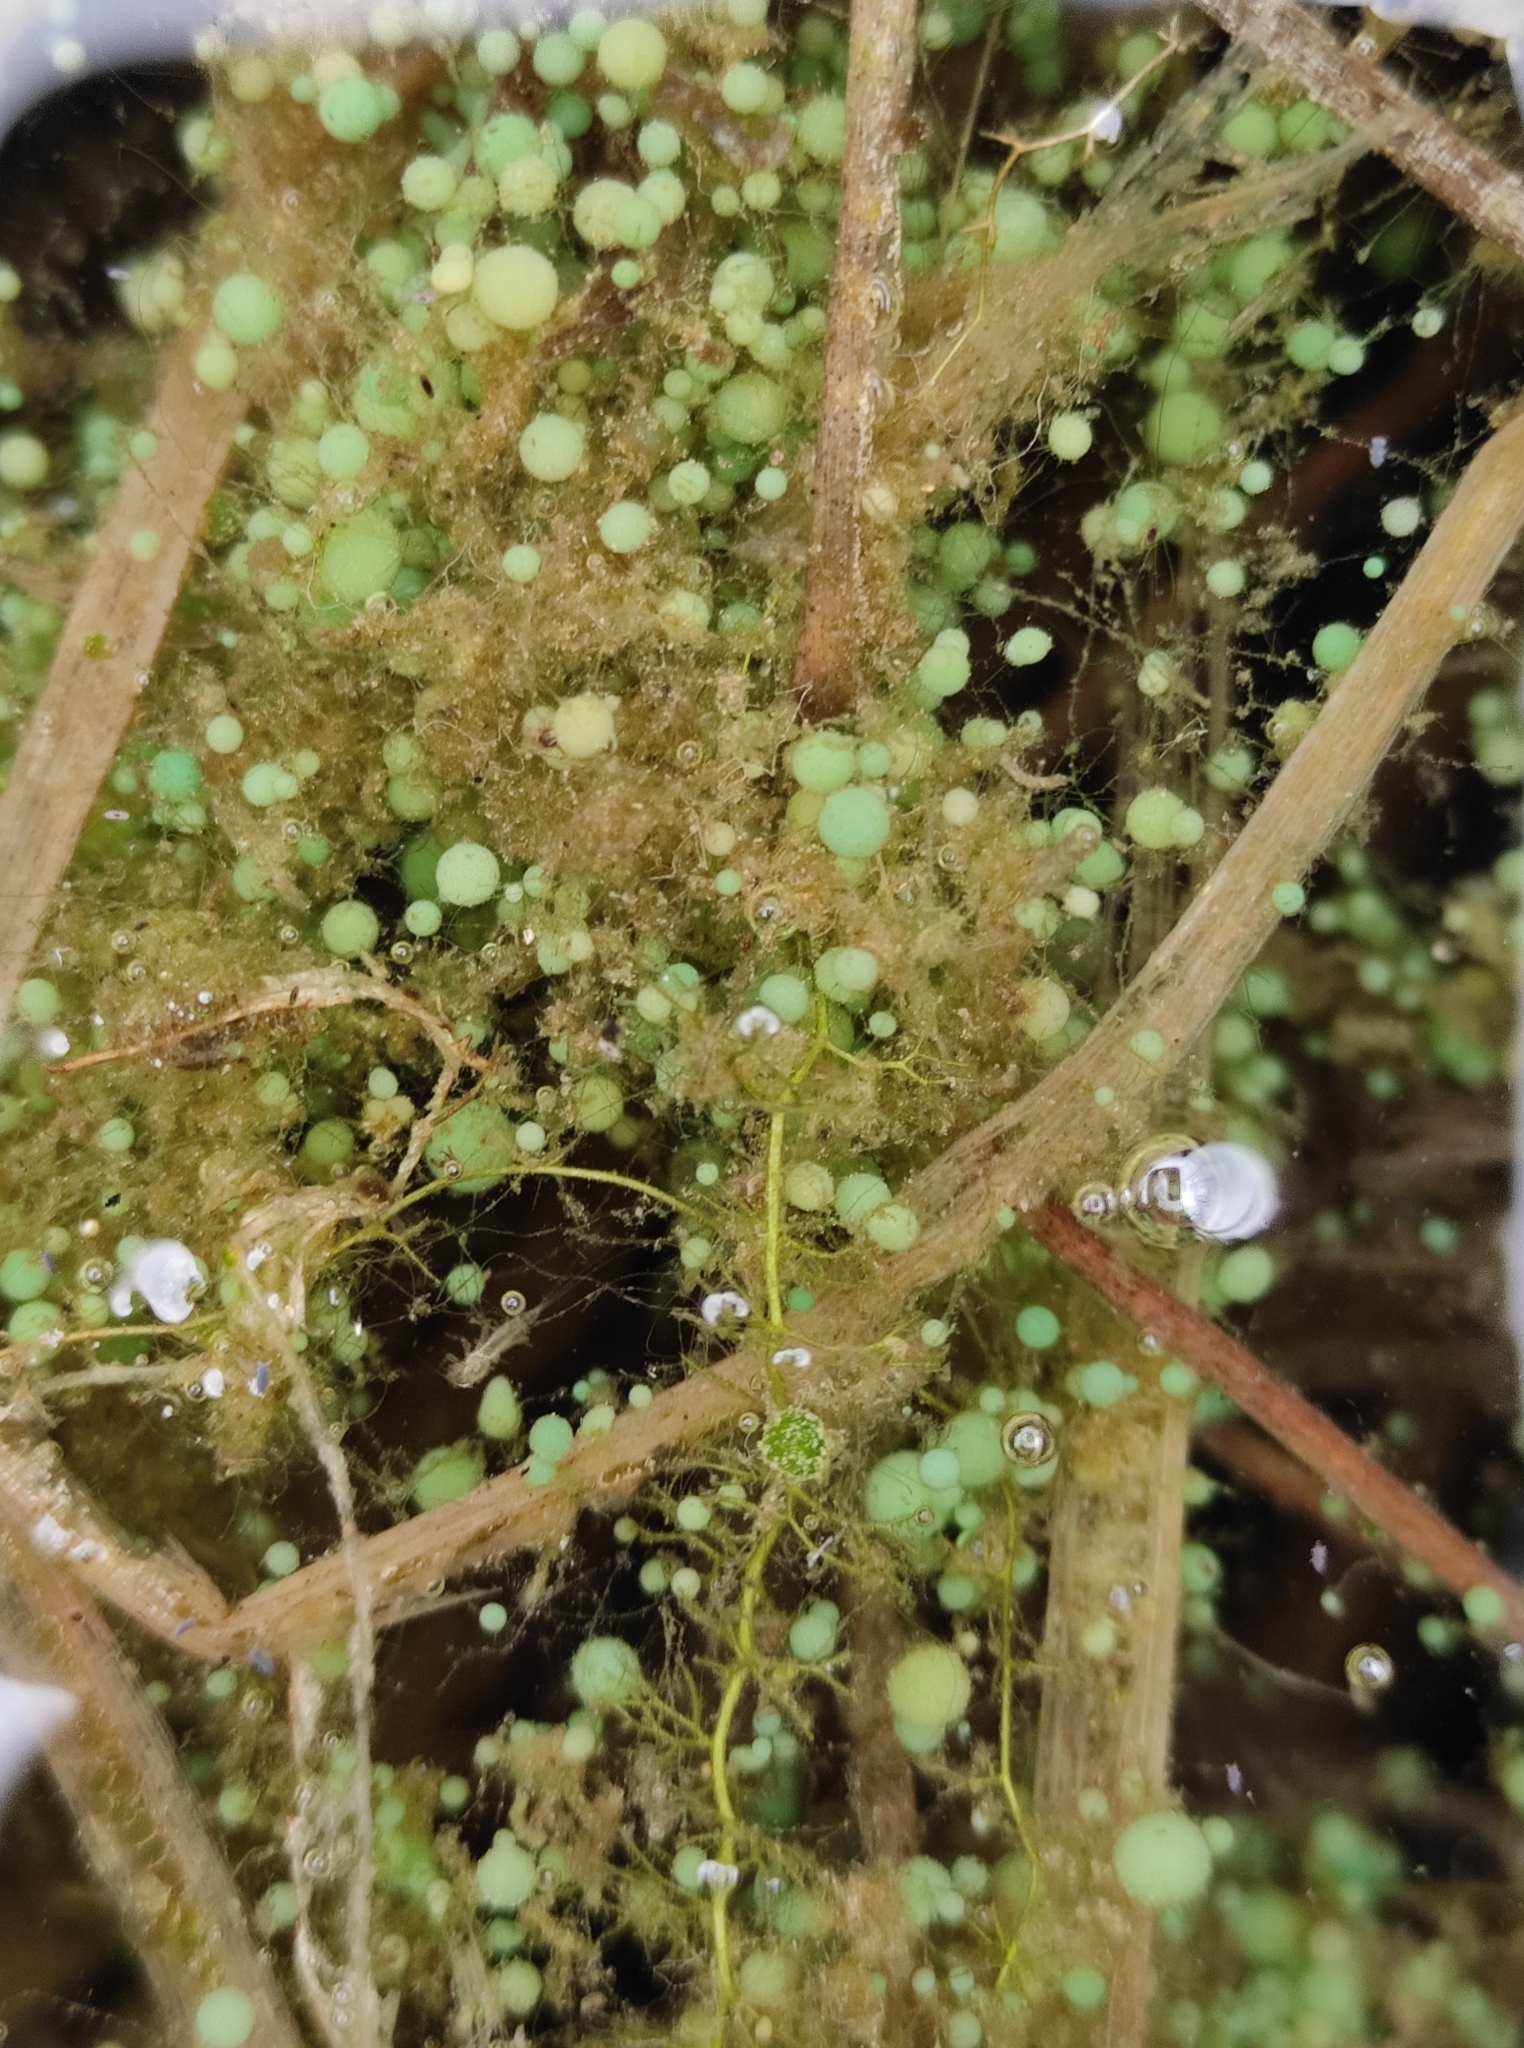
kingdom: Bacteria
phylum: Cyanobacteria
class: Cyanobacteriia
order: Cyanobacteriales
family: Nostocaceae
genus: Nostoc
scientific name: Nostoc kihlmanii
